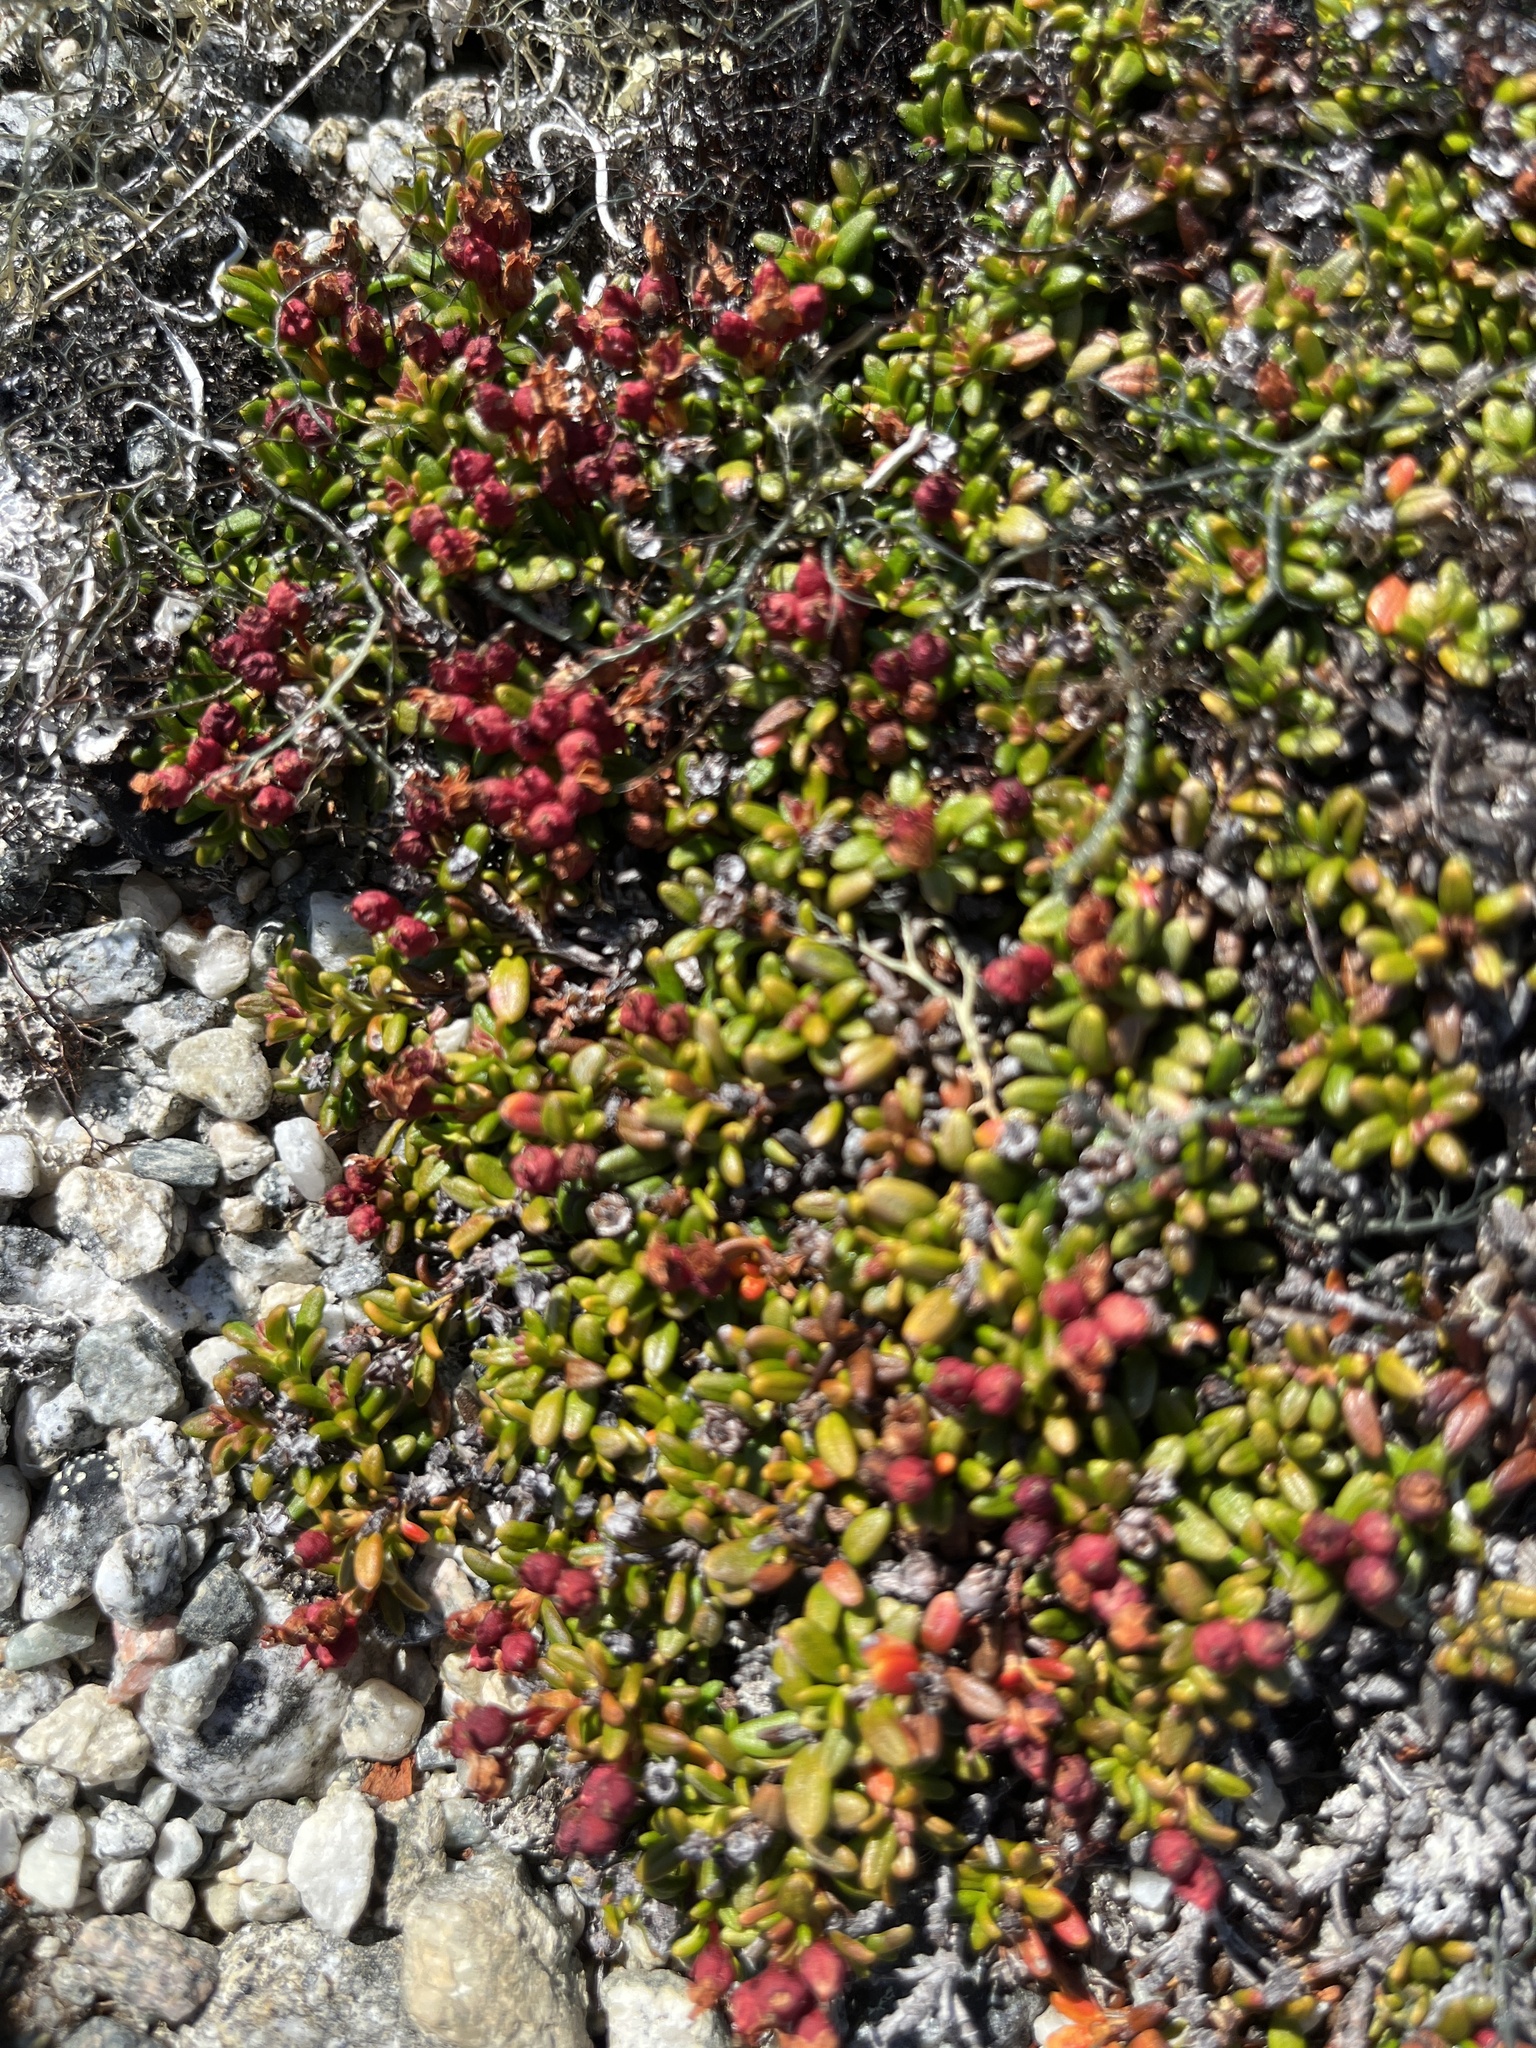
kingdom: Plantae
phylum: Tracheophyta
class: Magnoliopsida
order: Ericales
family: Ericaceae
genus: Kalmia
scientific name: Kalmia procumbens
